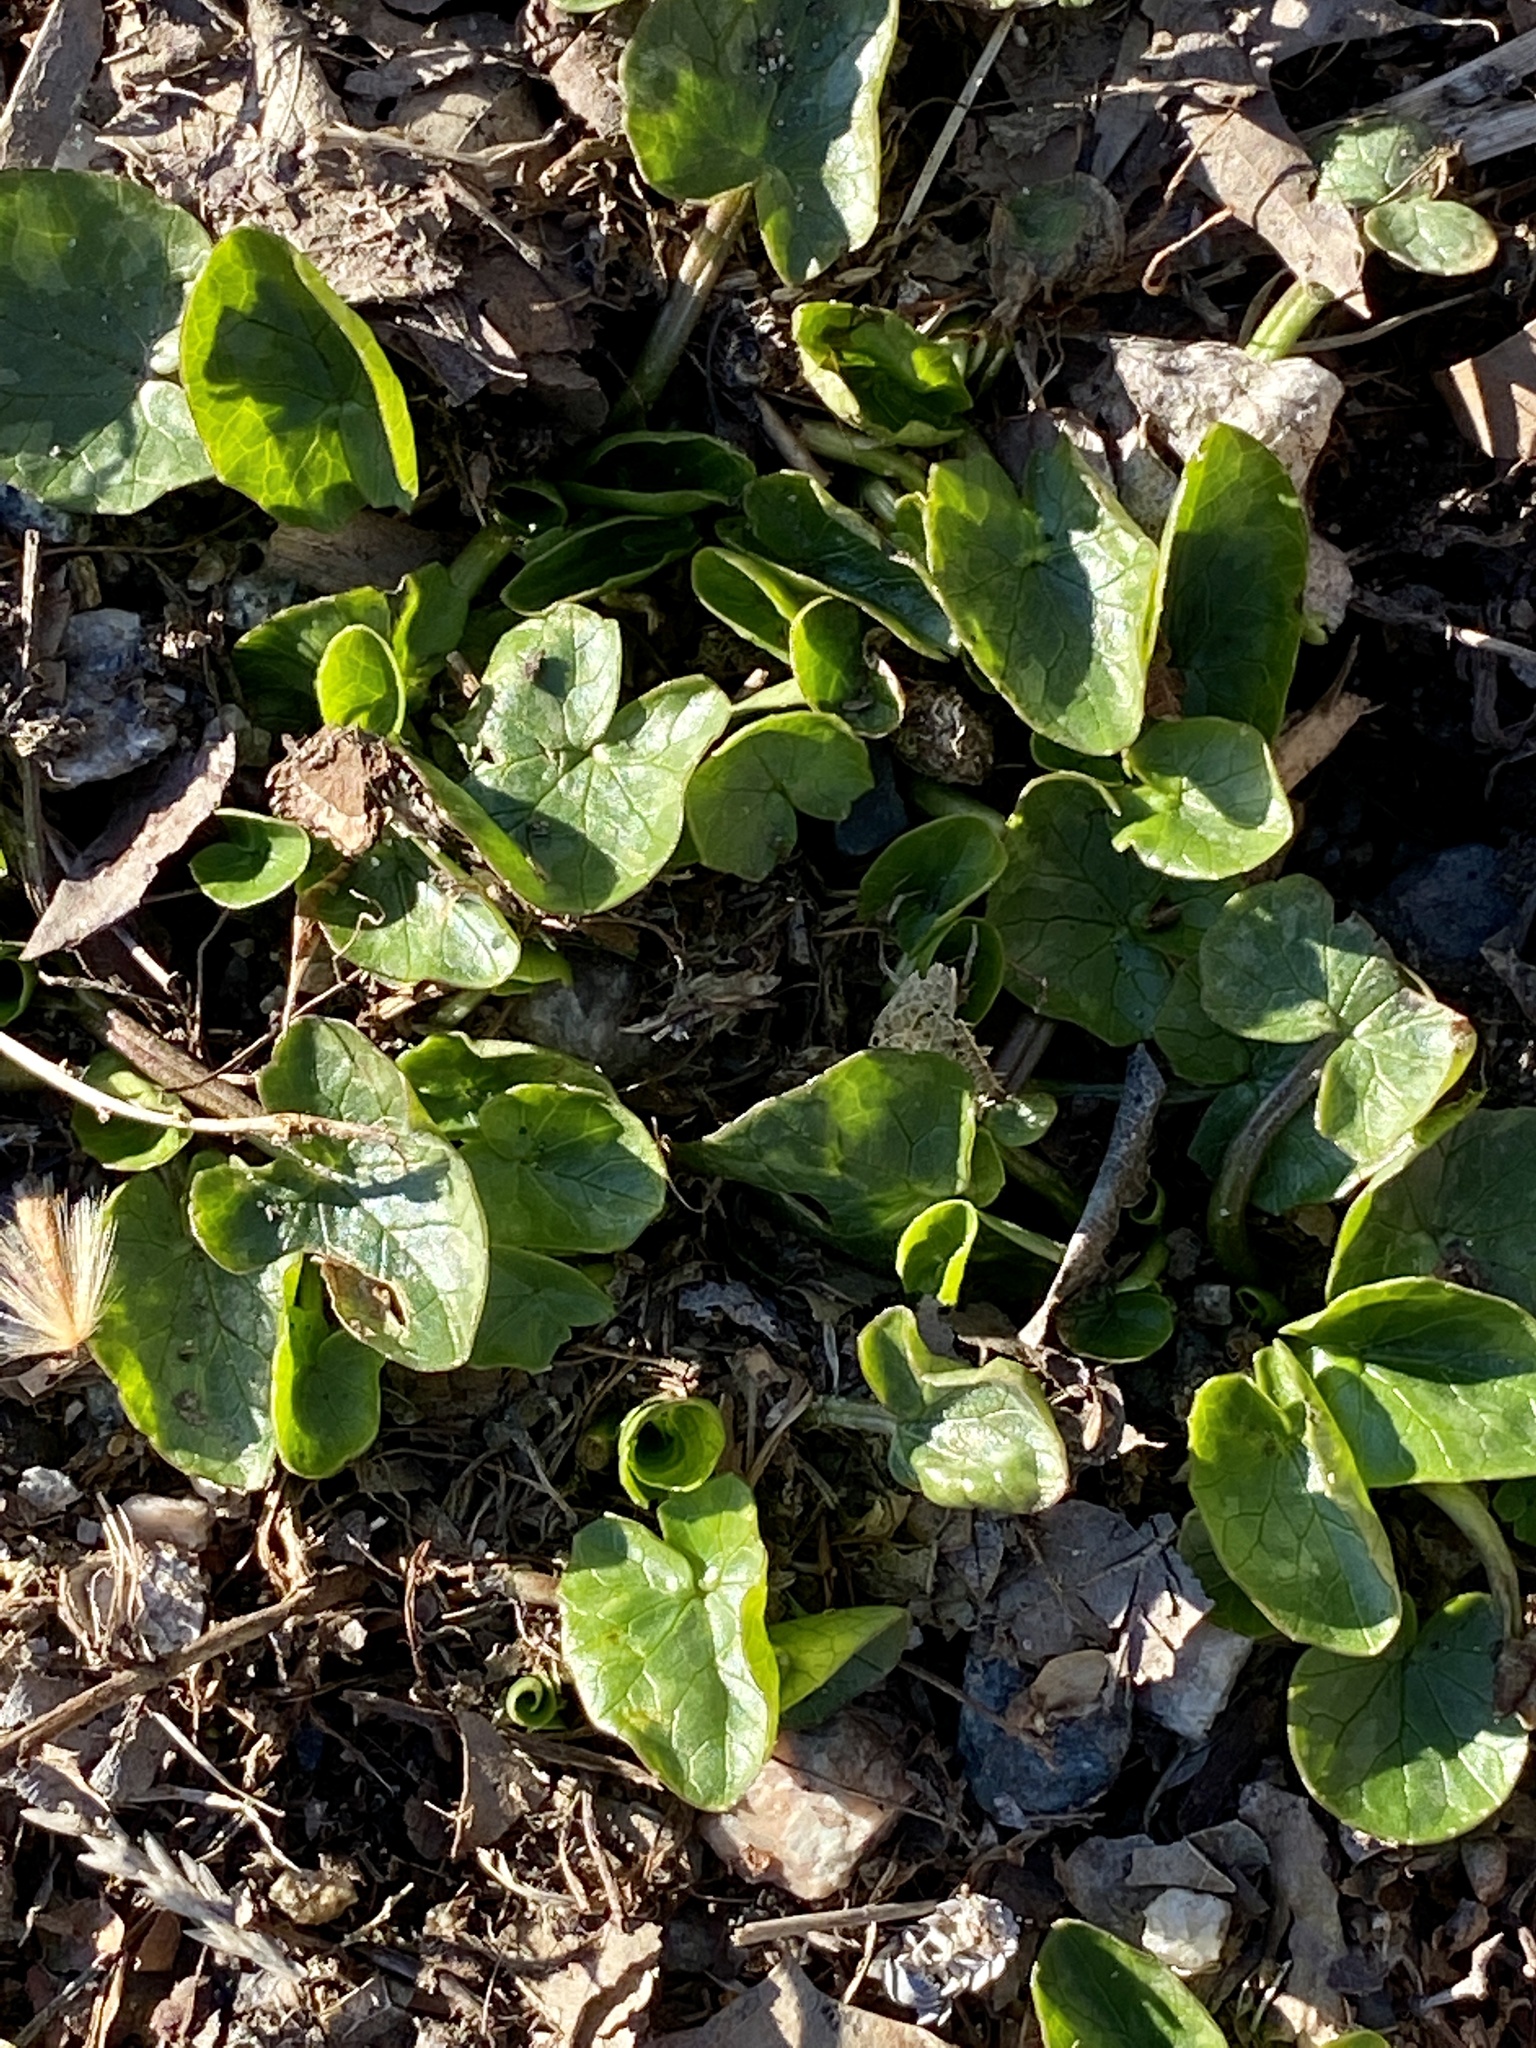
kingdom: Plantae
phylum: Tracheophyta
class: Magnoliopsida
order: Ranunculales
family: Ranunculaceae
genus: Ficaria
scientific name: Ficaria verna
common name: Lesser celandine
